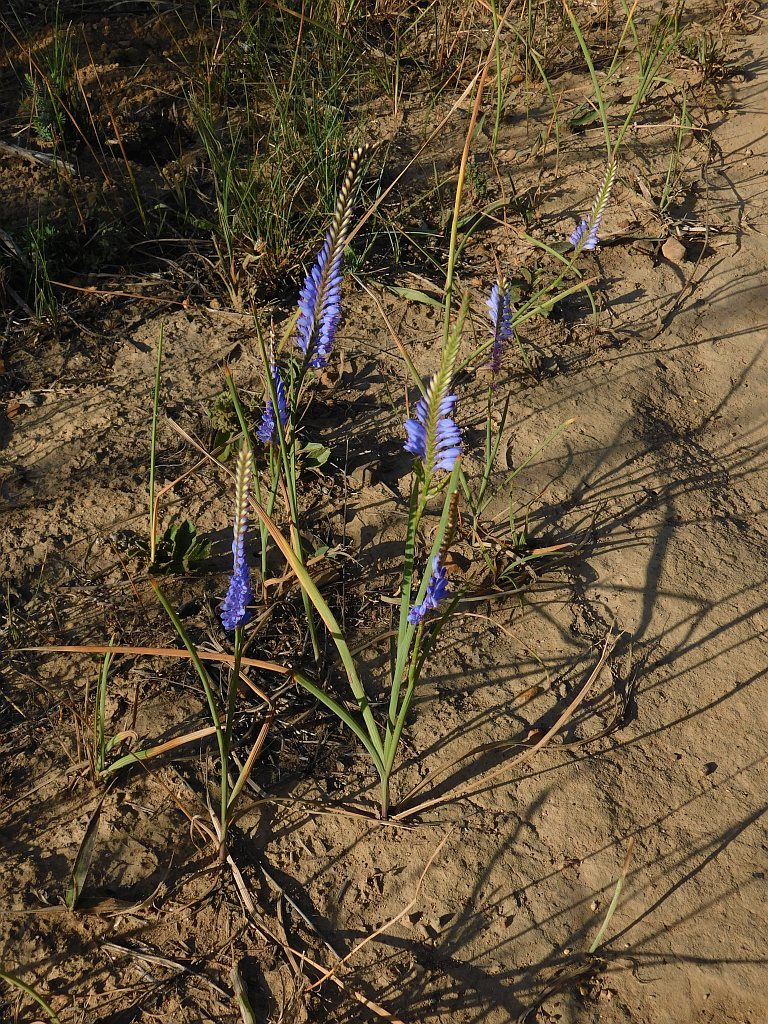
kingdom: Plantae
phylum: Tracheophyta
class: Liliopsida
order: Asparagales
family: Iridaceae
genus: Micranthus
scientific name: Micranthus plantagineus
